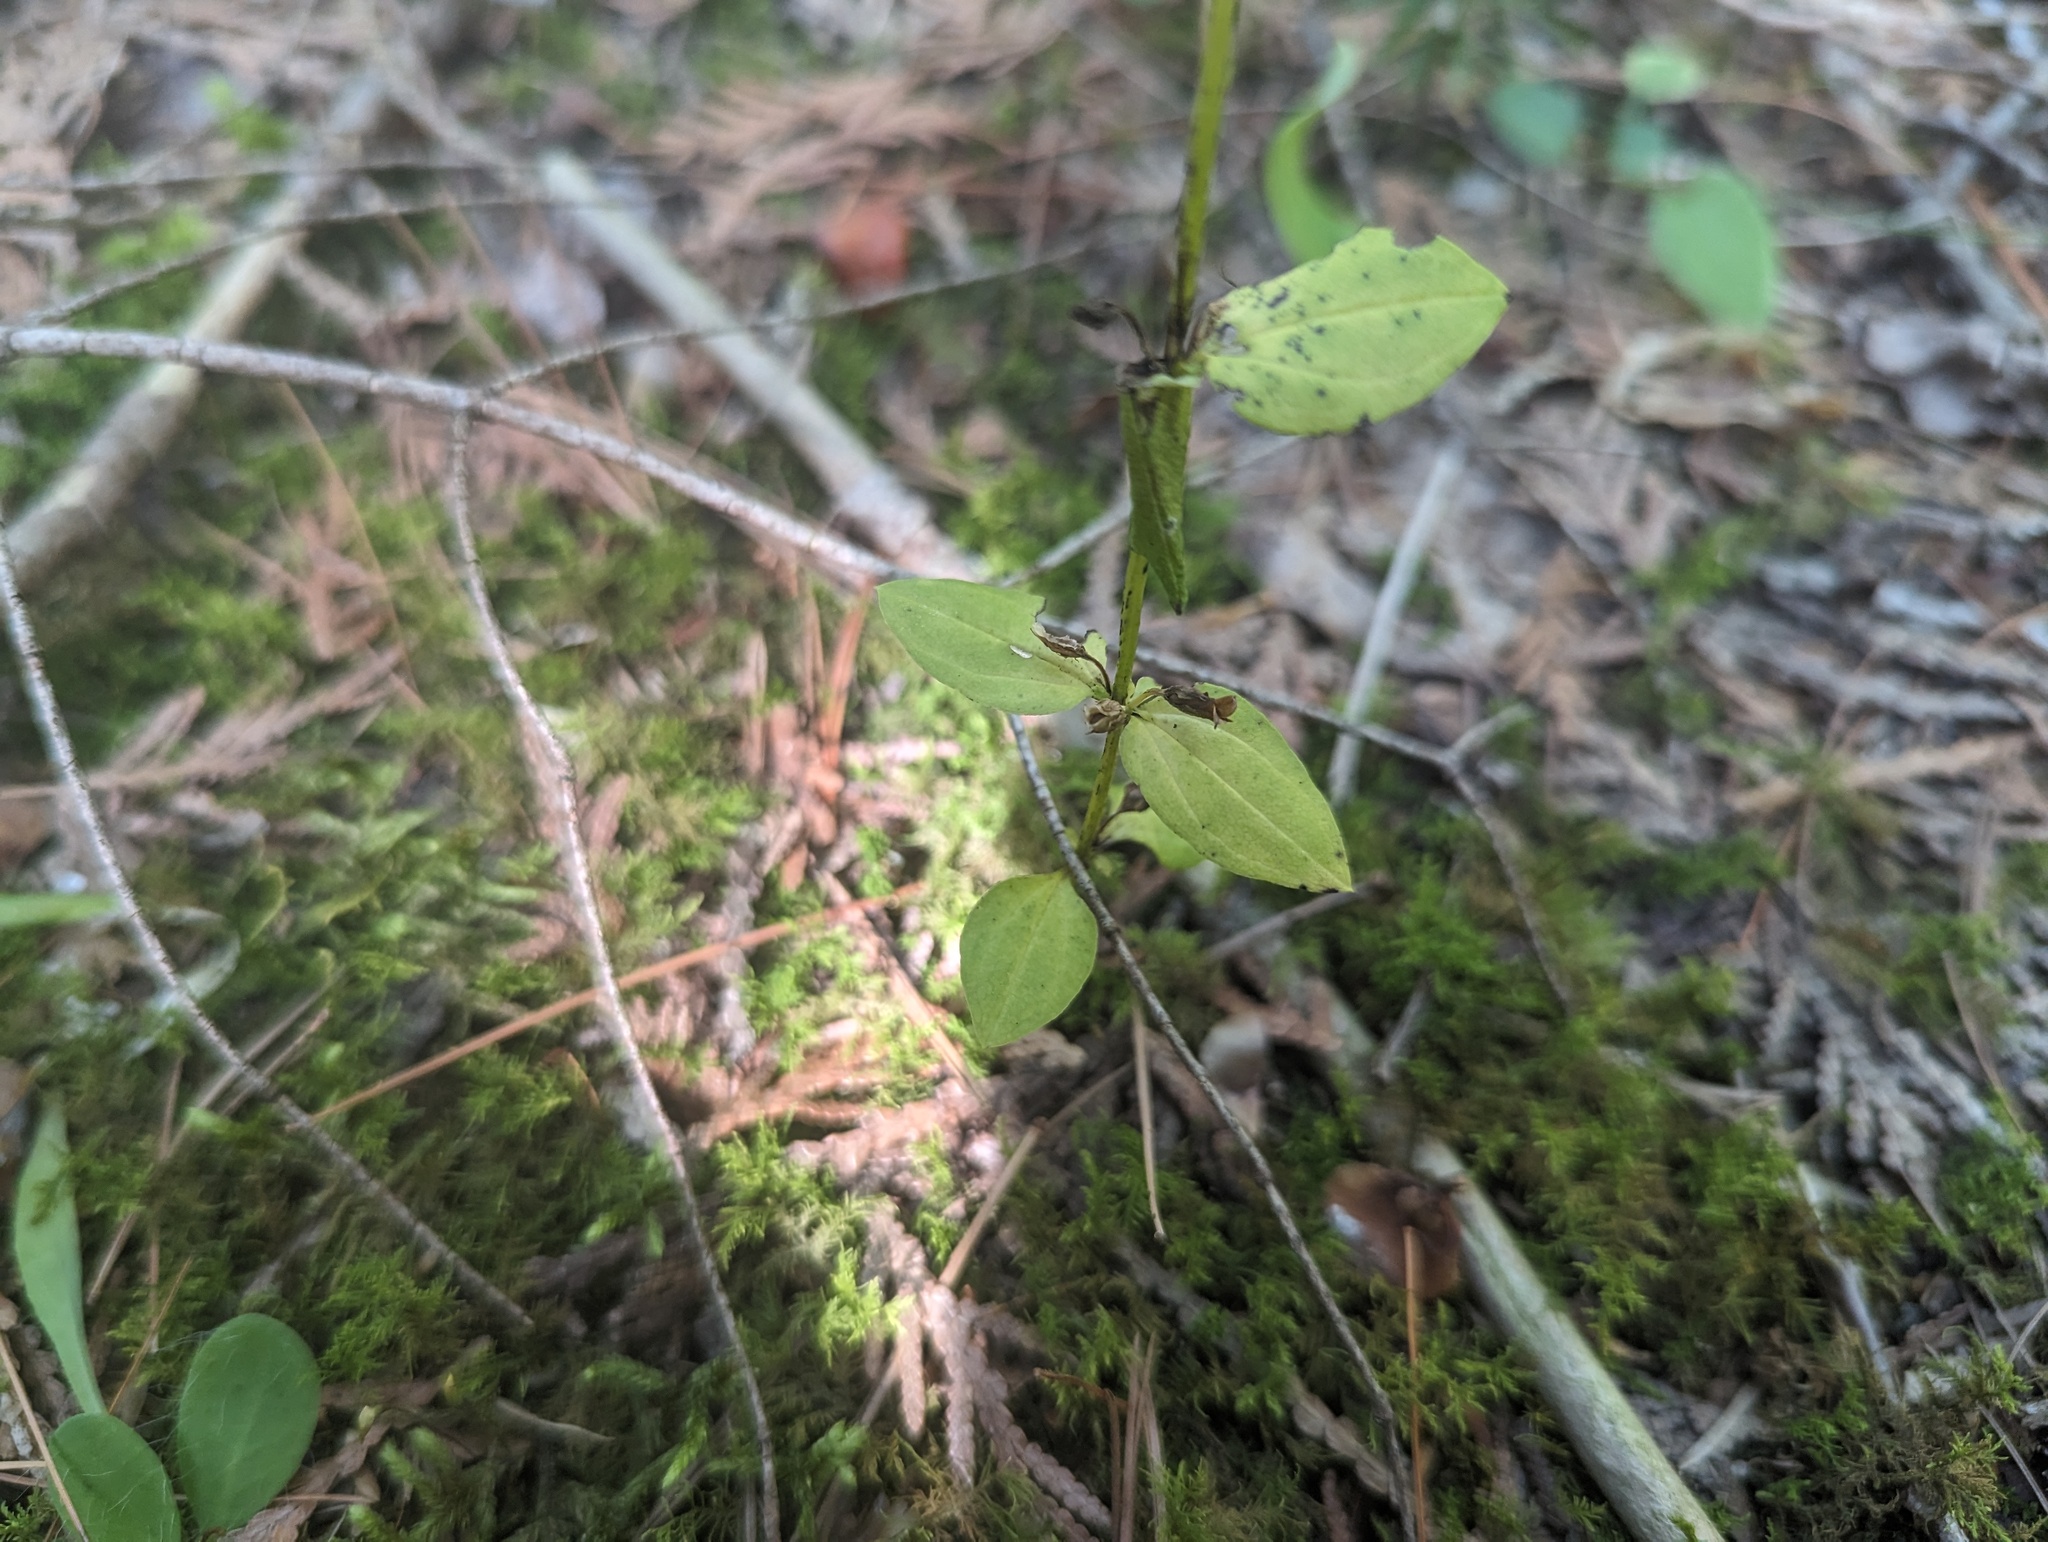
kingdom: Plantae
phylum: Tracheophyta
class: Magnoliopsida
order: Gentianales
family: Gentianaceae
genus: Halenia
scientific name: Halenia deflexa
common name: American spurred gentian
